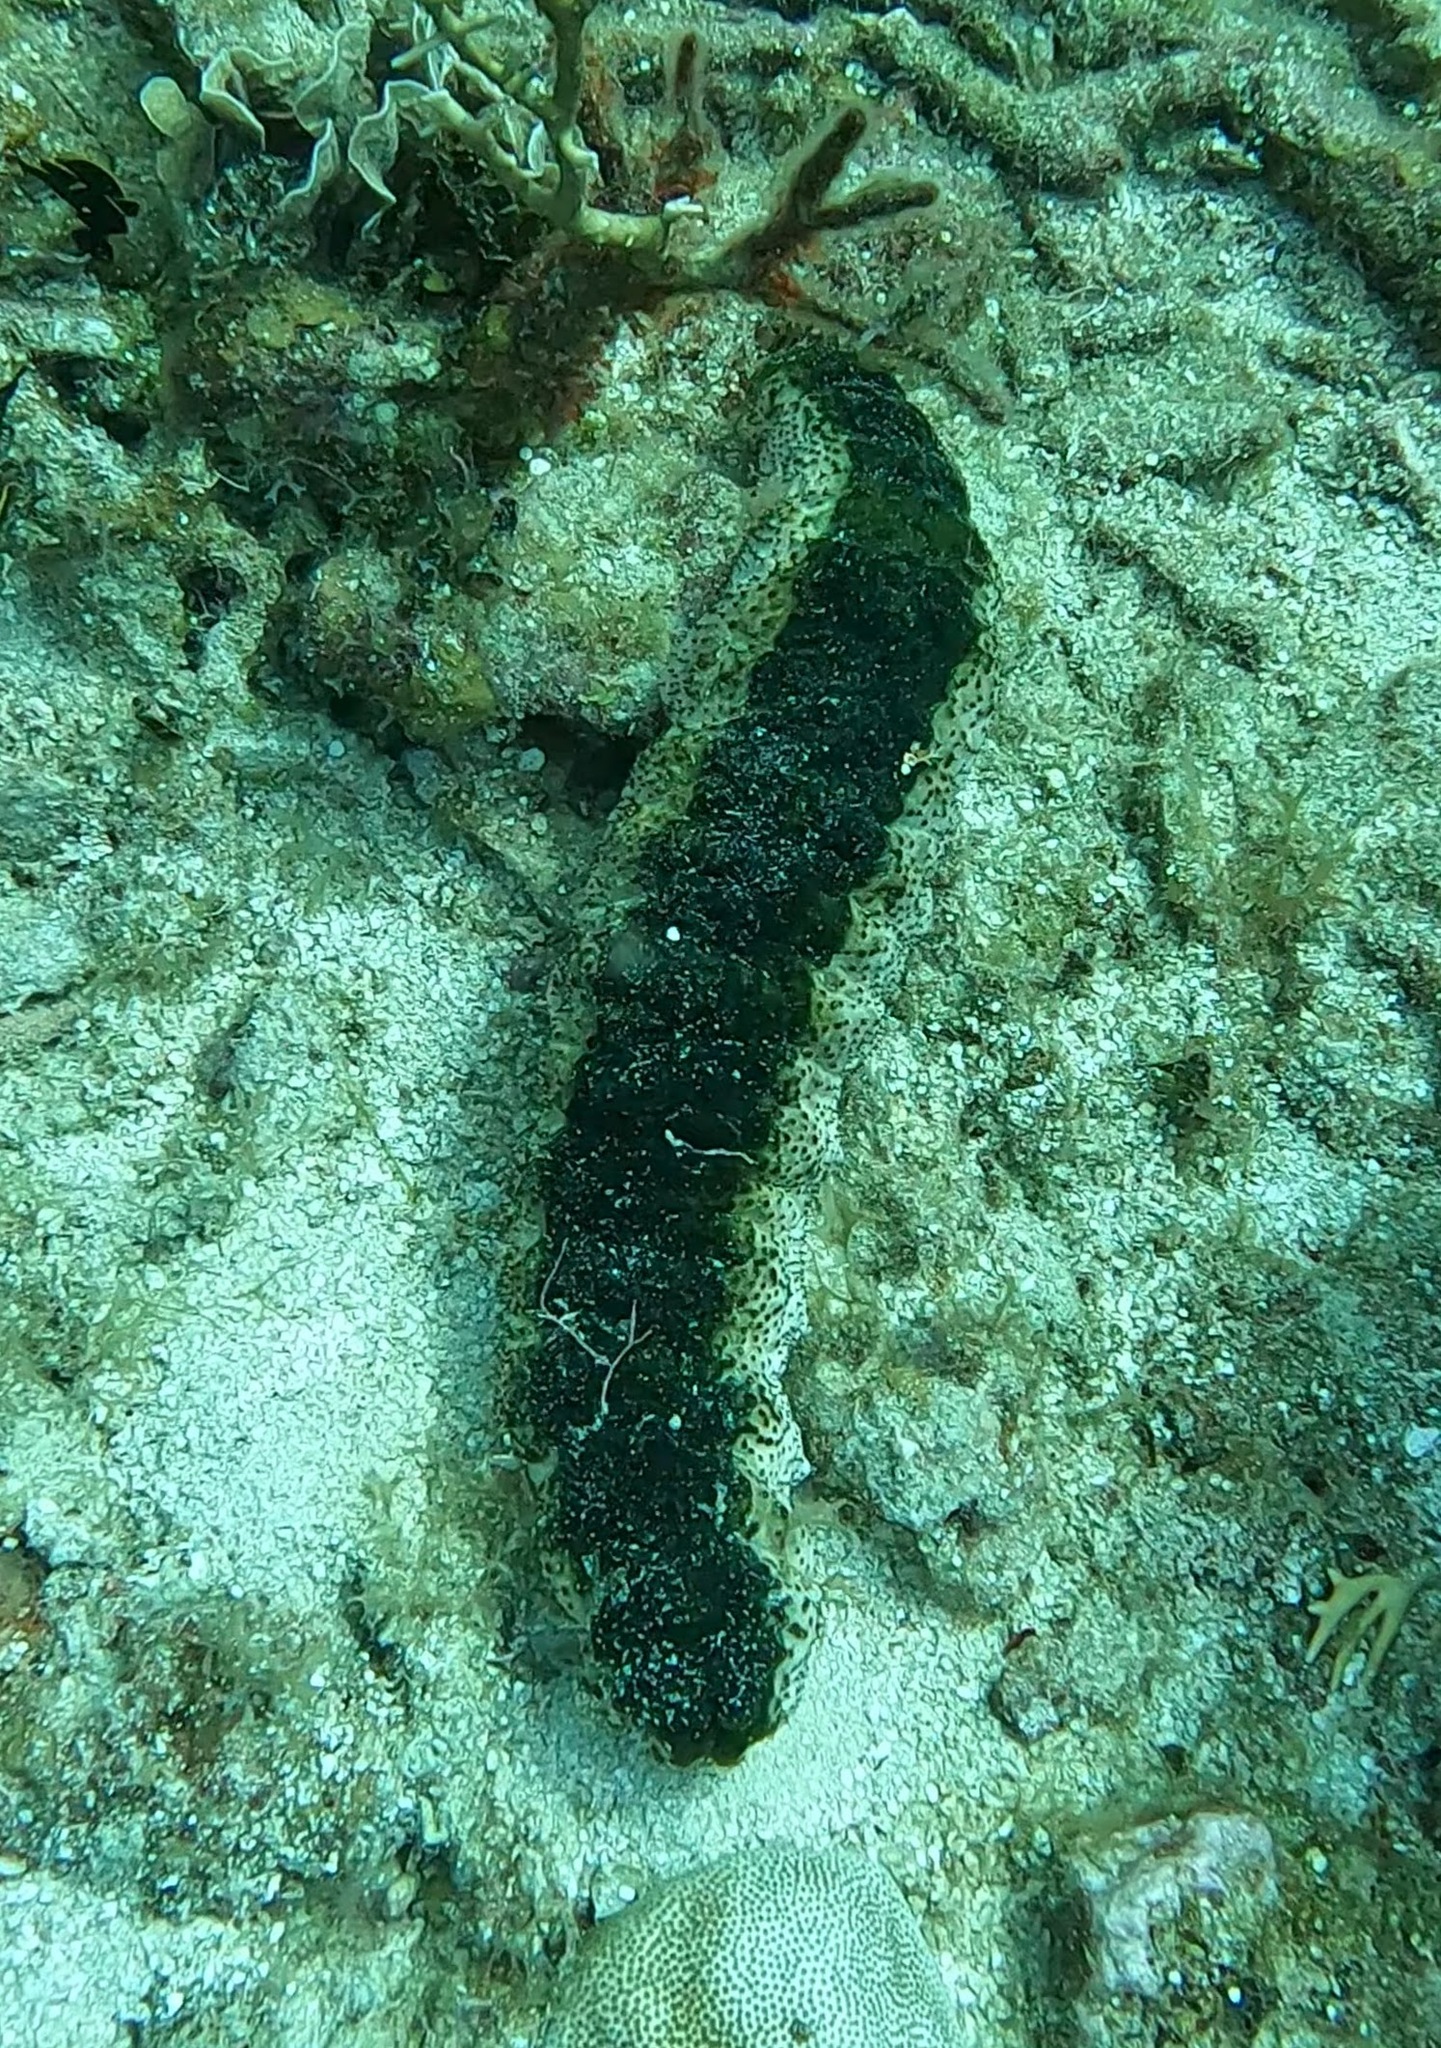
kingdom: Animalia
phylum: Echinodermata
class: Holothuroidea
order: Holothuriida
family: Holothuriidae
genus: Holothuria
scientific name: Holothuria mexicana
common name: Donkey dung sea cucumber
